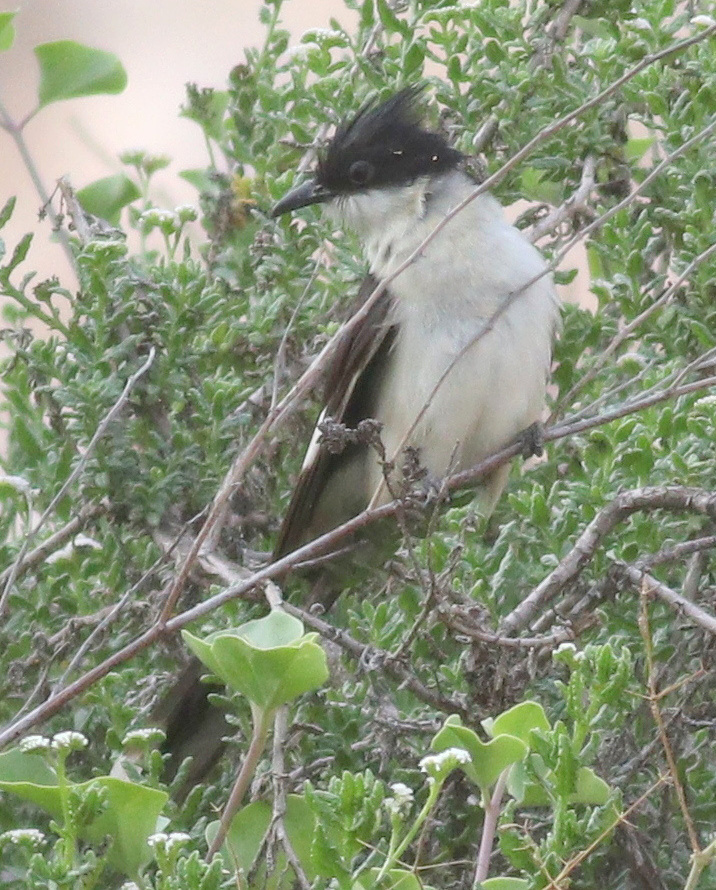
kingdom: Animalia
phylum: Chordata
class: Aves
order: Cuculiformes
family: Cuculidae
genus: Clamator
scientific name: Clamator jacobinus
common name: Jacobin cuckoo
